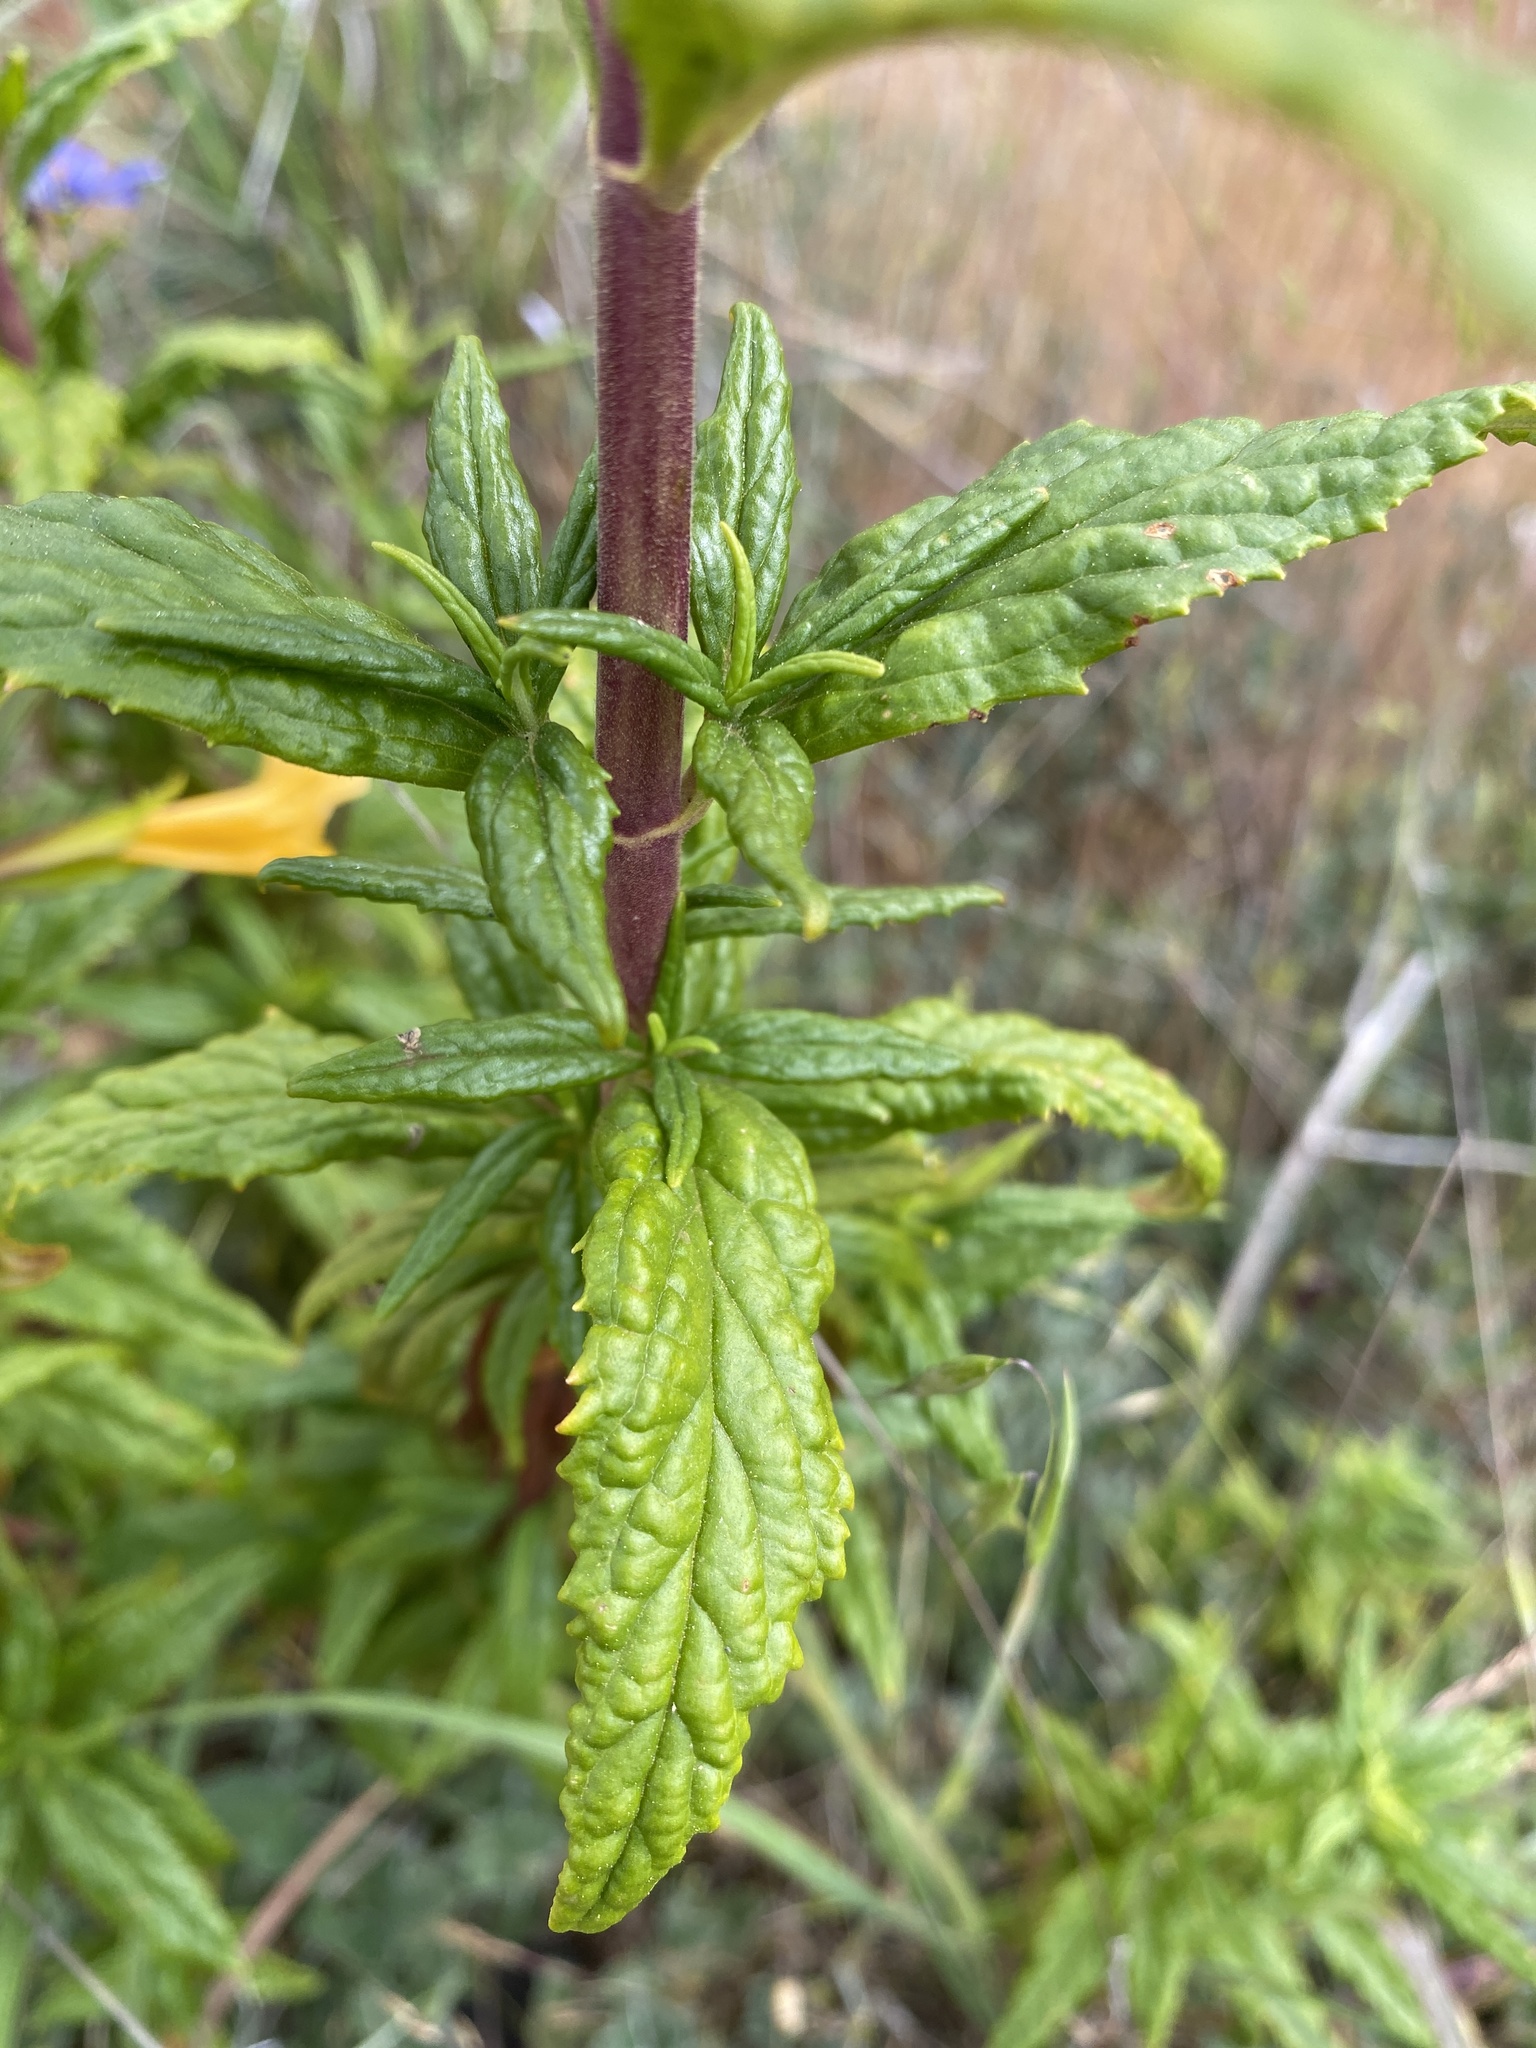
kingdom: Plantae
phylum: Tracheophyta
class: Magnoliopsida
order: Lamiales
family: Phrymaceae
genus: Diplacus
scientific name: Diplacus aurantiacus
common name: Bush monkey-flower
